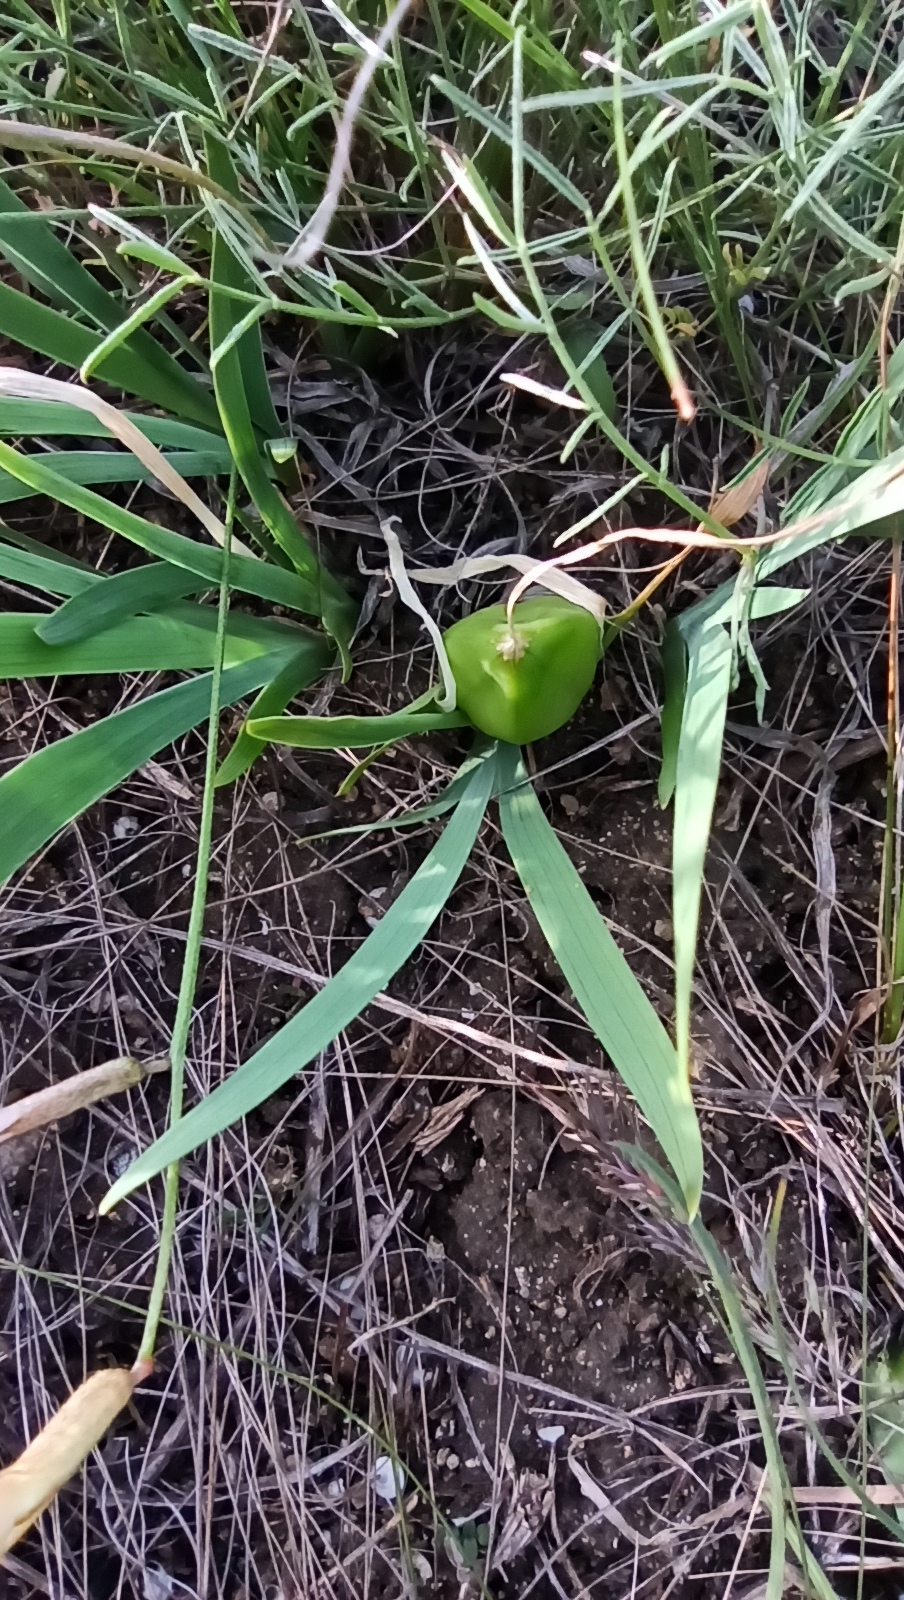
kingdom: Plantae
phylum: Tracheophyta
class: Liliopsida
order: Asparagales
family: Iridaceae
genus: Iris
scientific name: Iris pumila
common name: Dwarf iris
